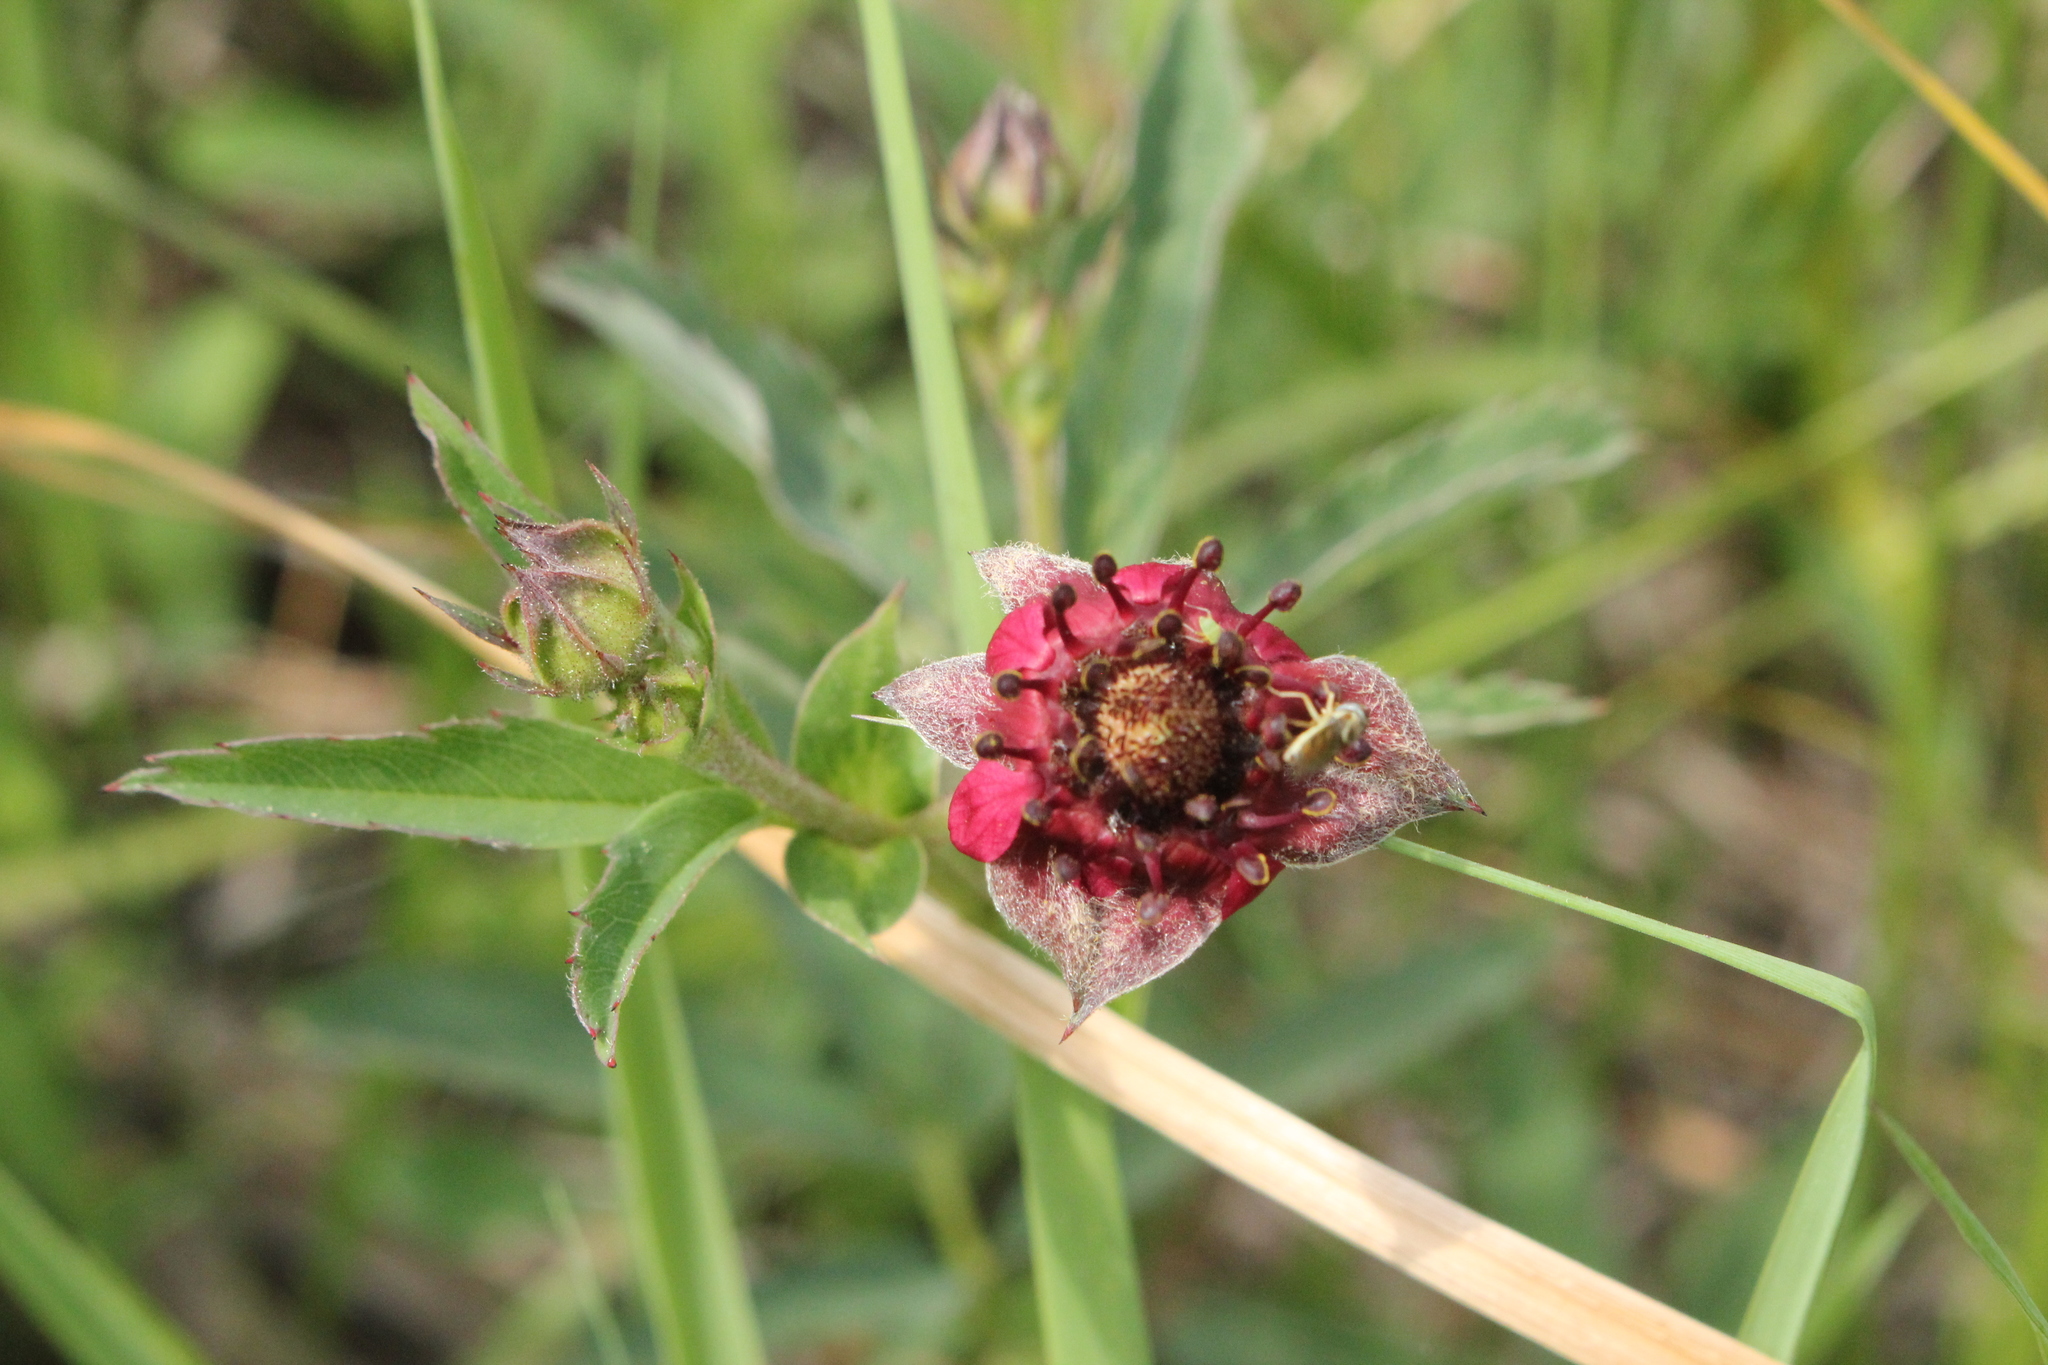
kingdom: Plantae
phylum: Tracheophyta
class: Magnoliopsida
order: Rosales
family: Rosaceae
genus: Comarum
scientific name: Comarum palustre
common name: Marsh cinquefoil
